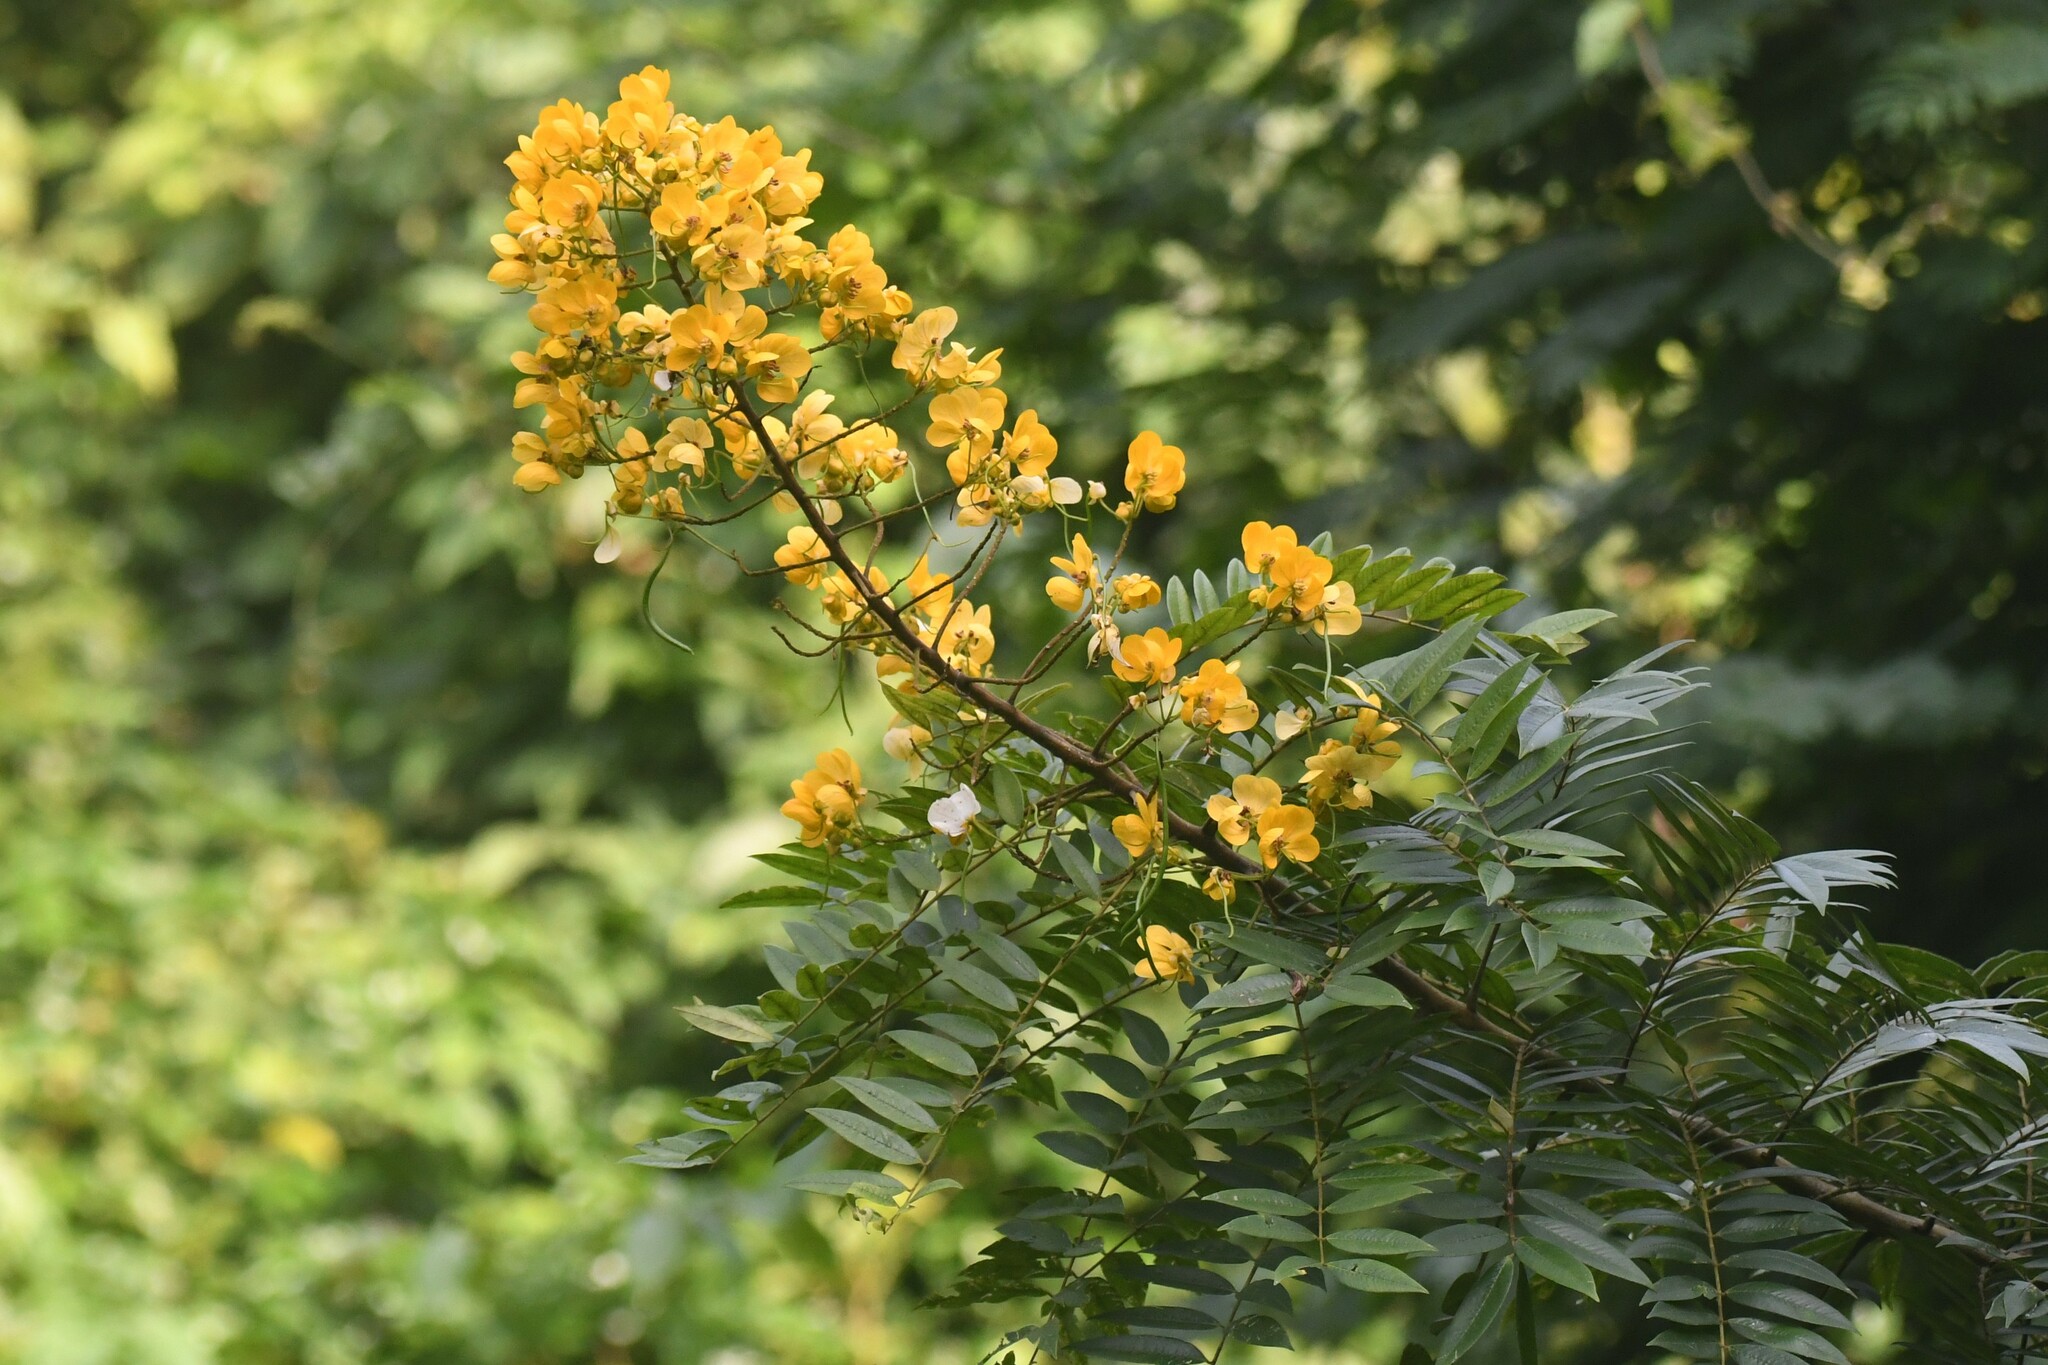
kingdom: Plantae
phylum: Tracheophyta
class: Magnoliopsida
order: Fabales
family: Fabaceae
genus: Senna
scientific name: Senna spectabilis
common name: Casia amarilla
